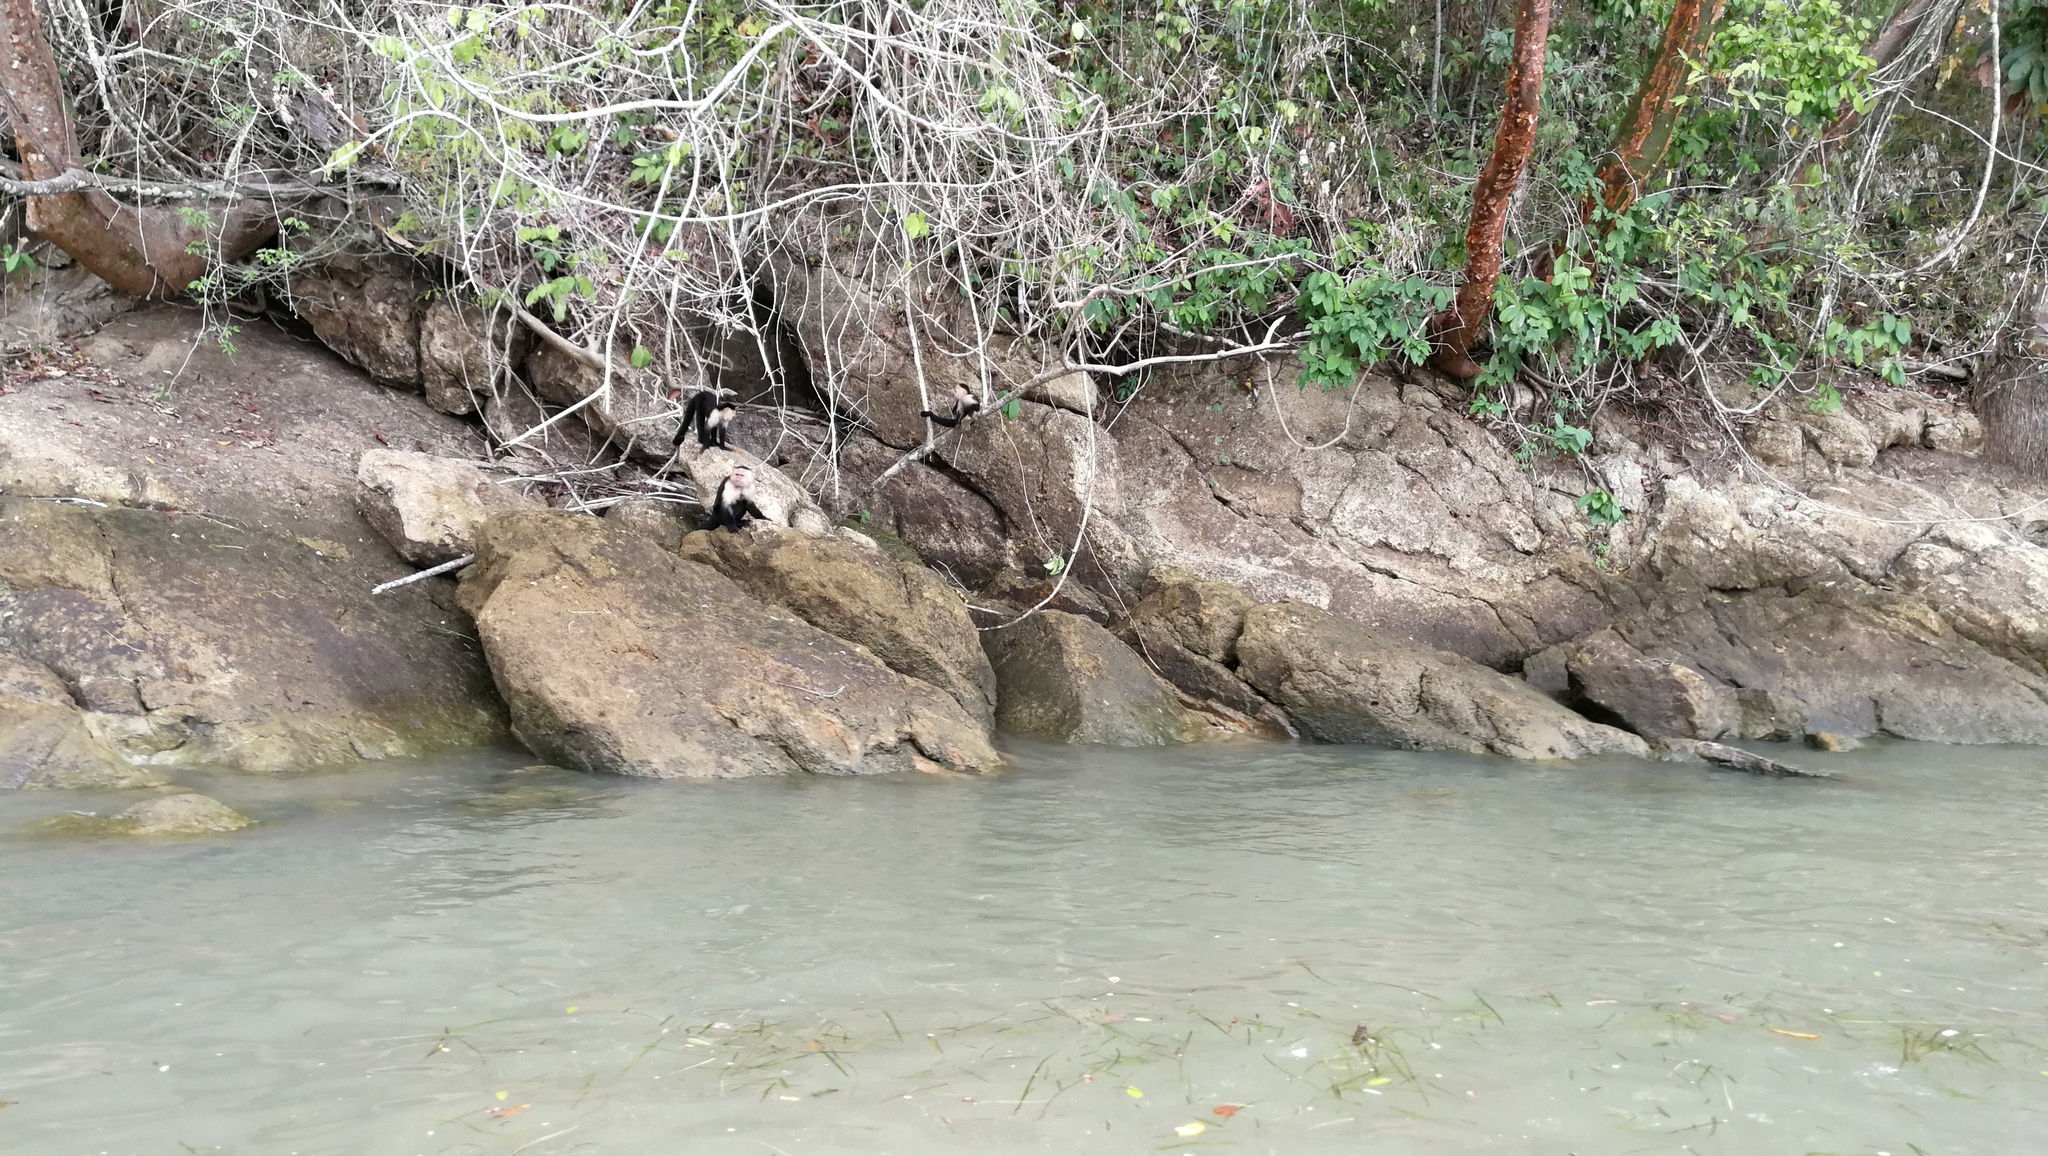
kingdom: Animalia
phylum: Chordata
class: Mammalia
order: Primates
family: Cebidae
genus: Cebus
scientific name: Cebus capucinus
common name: White-headed capuchin
